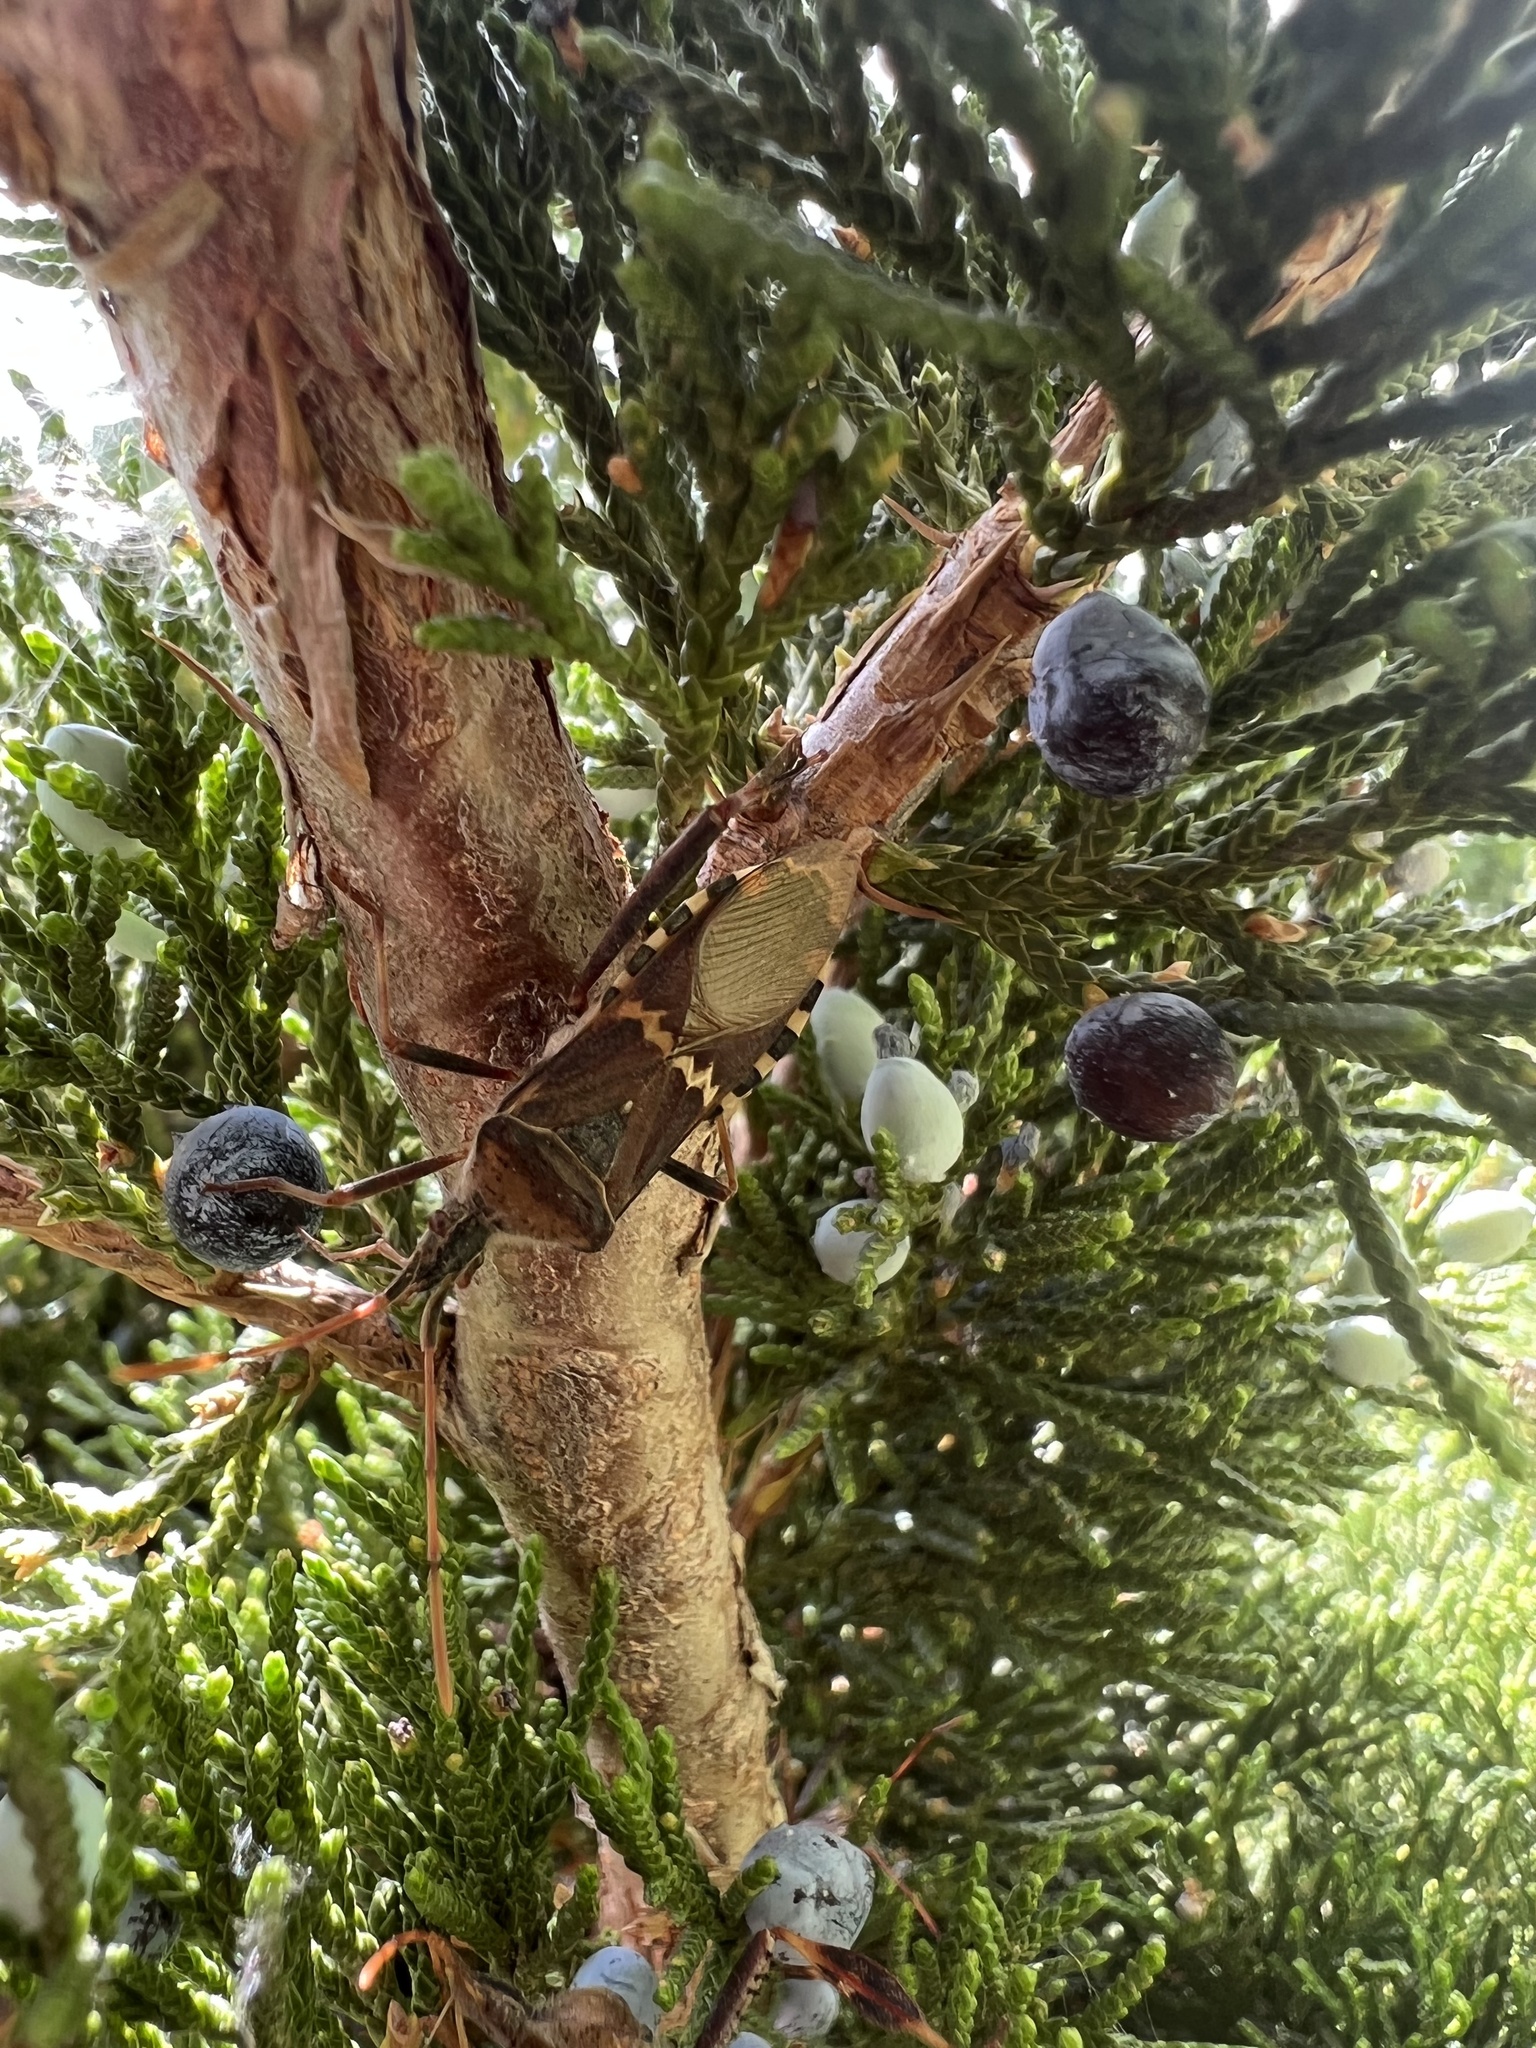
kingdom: Animalia
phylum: Arthropoda
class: Insecta
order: Hemiptera
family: Coreidae
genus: Leptoglossus
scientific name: Leptoglossus clypealis
